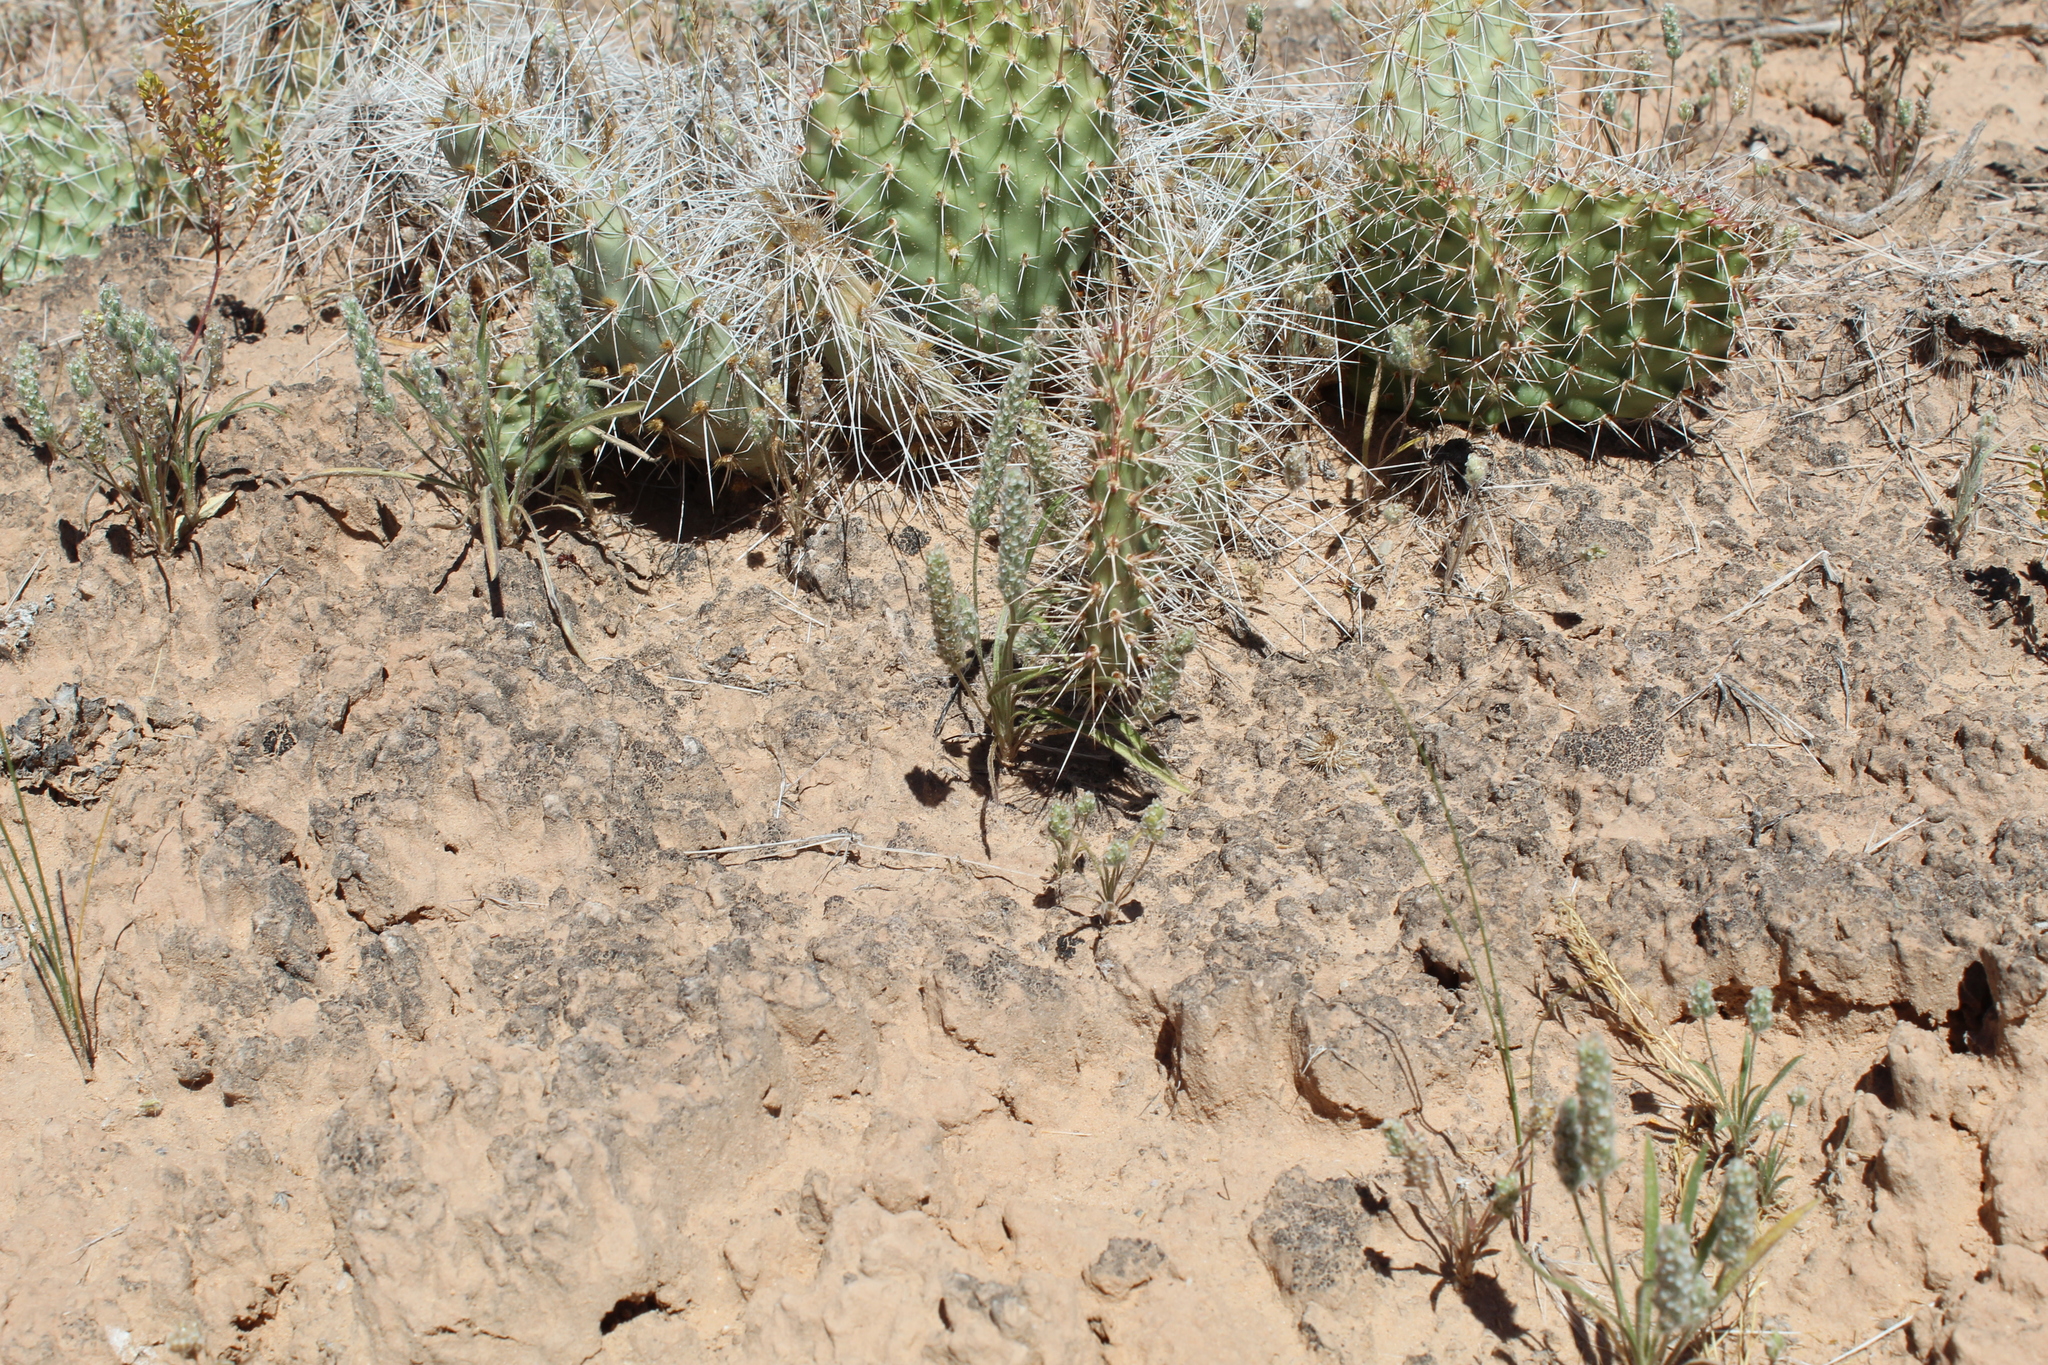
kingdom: Plantae
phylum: Tracheophyta
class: Magnoliopsida
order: Caryophyllales
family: Cactaceae
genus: Opuntia
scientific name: Opuntia polyacantha
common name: Plains prickly-pear
